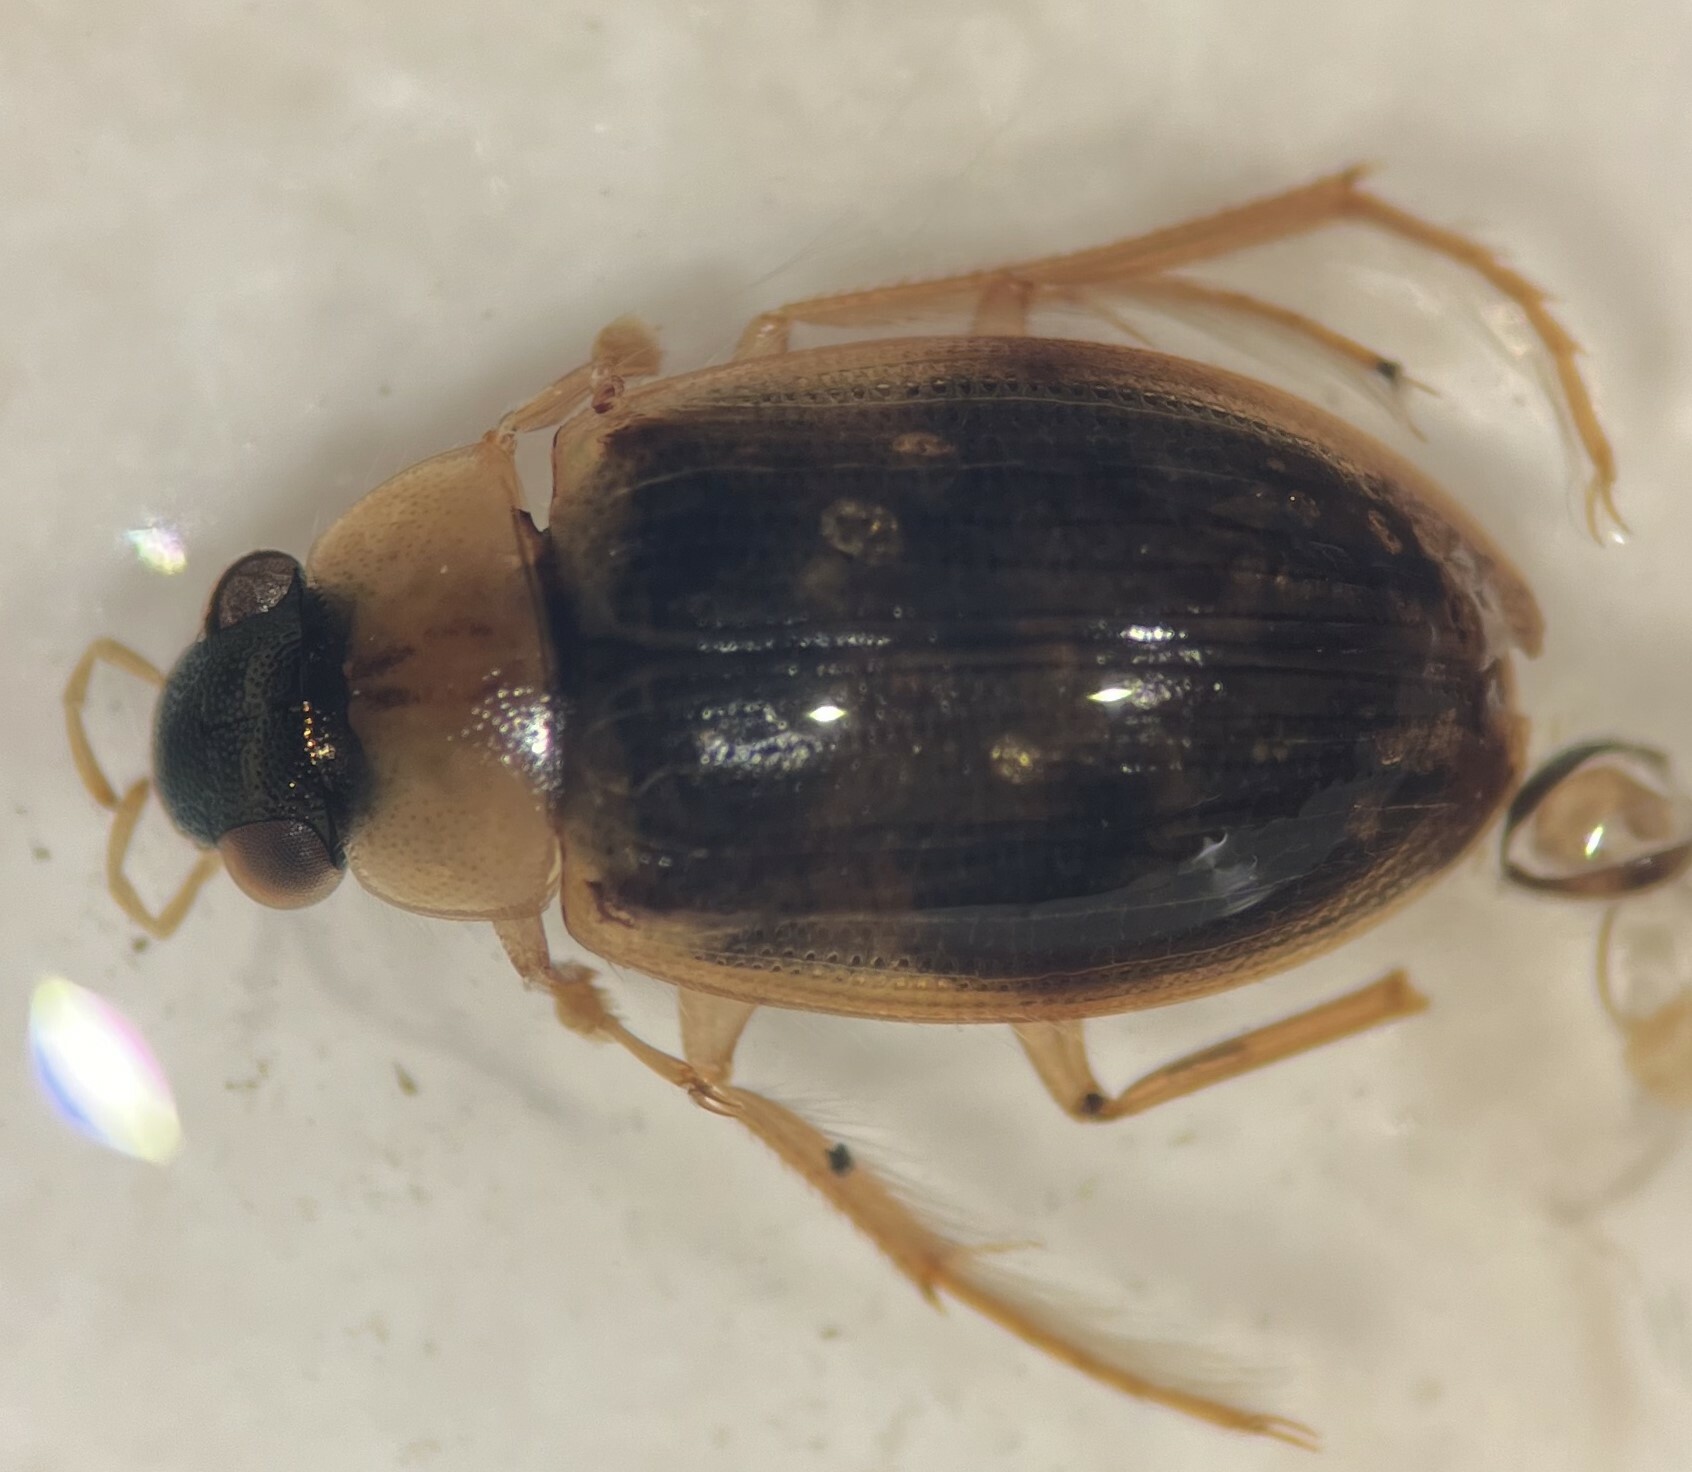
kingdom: Animalia
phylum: Arthropoda
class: Insecta
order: Coleoptera
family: Hydrophilidae
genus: Berosus
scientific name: Berosus stylifer
